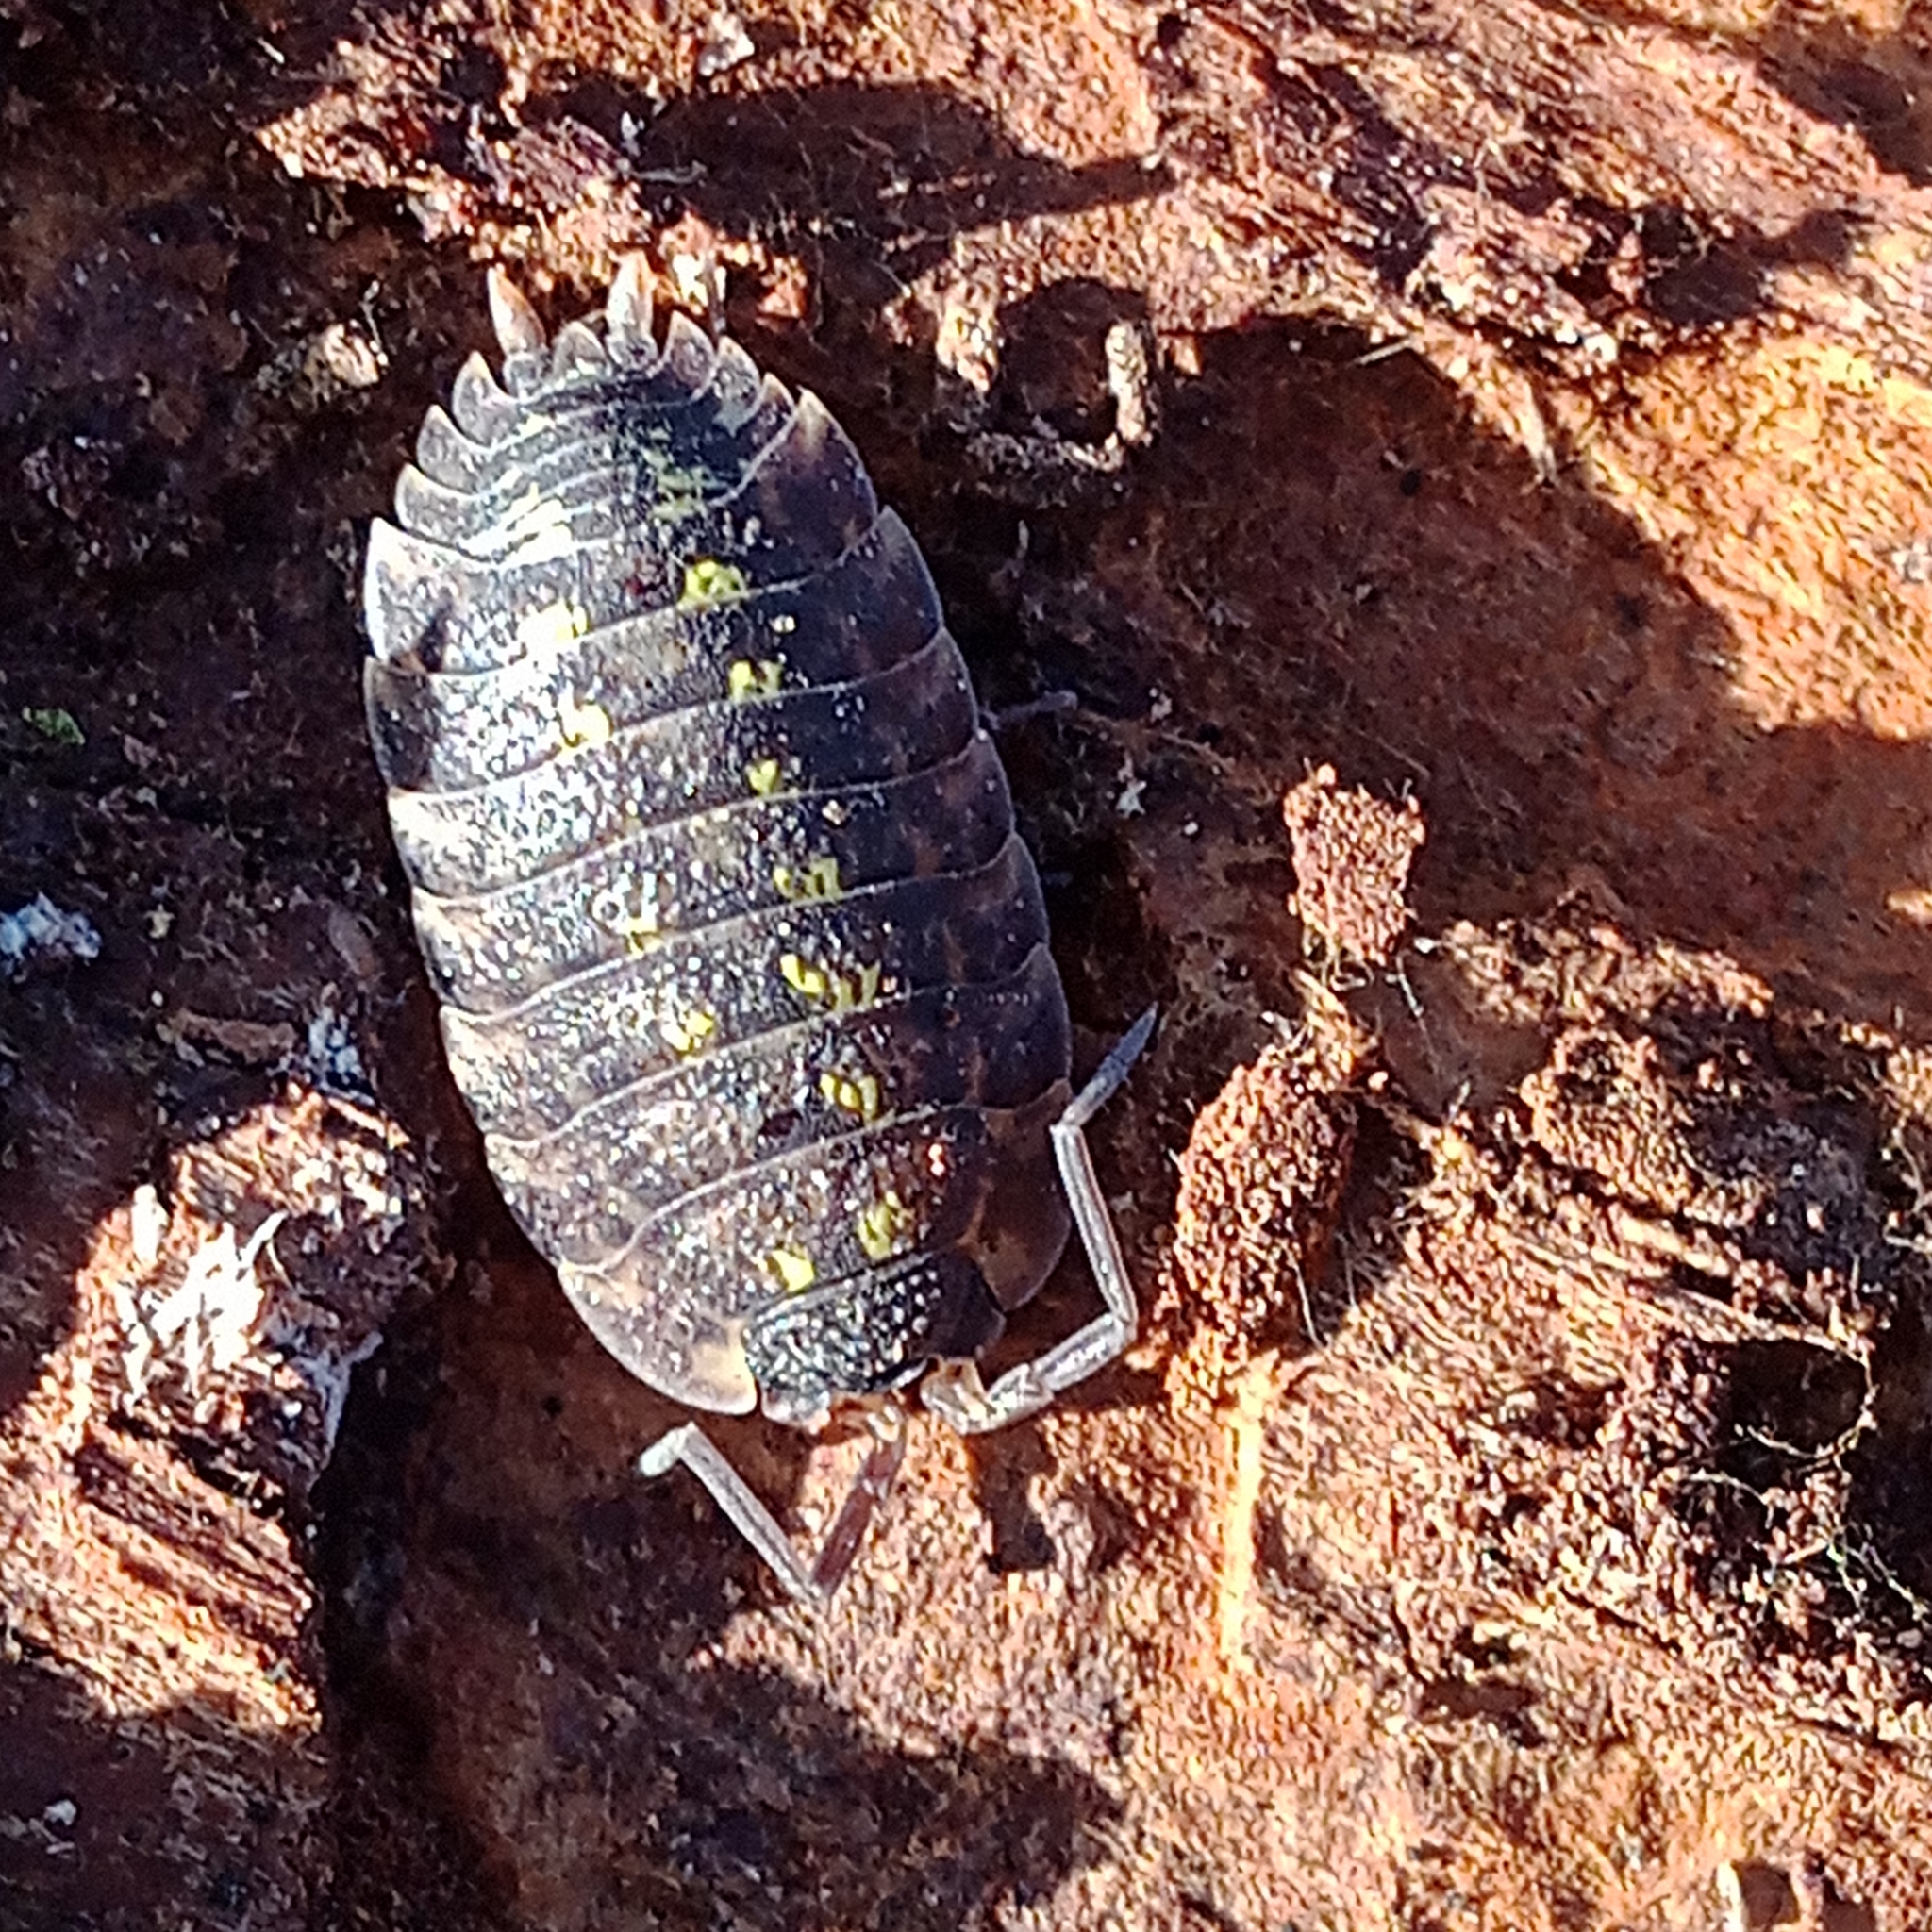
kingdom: Animalia
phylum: Arthropoda
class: Malacostraca
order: Isopoda
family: Porcellionidae
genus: Porcellio
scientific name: Porcellio spinicornis
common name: Painted woodlouse
